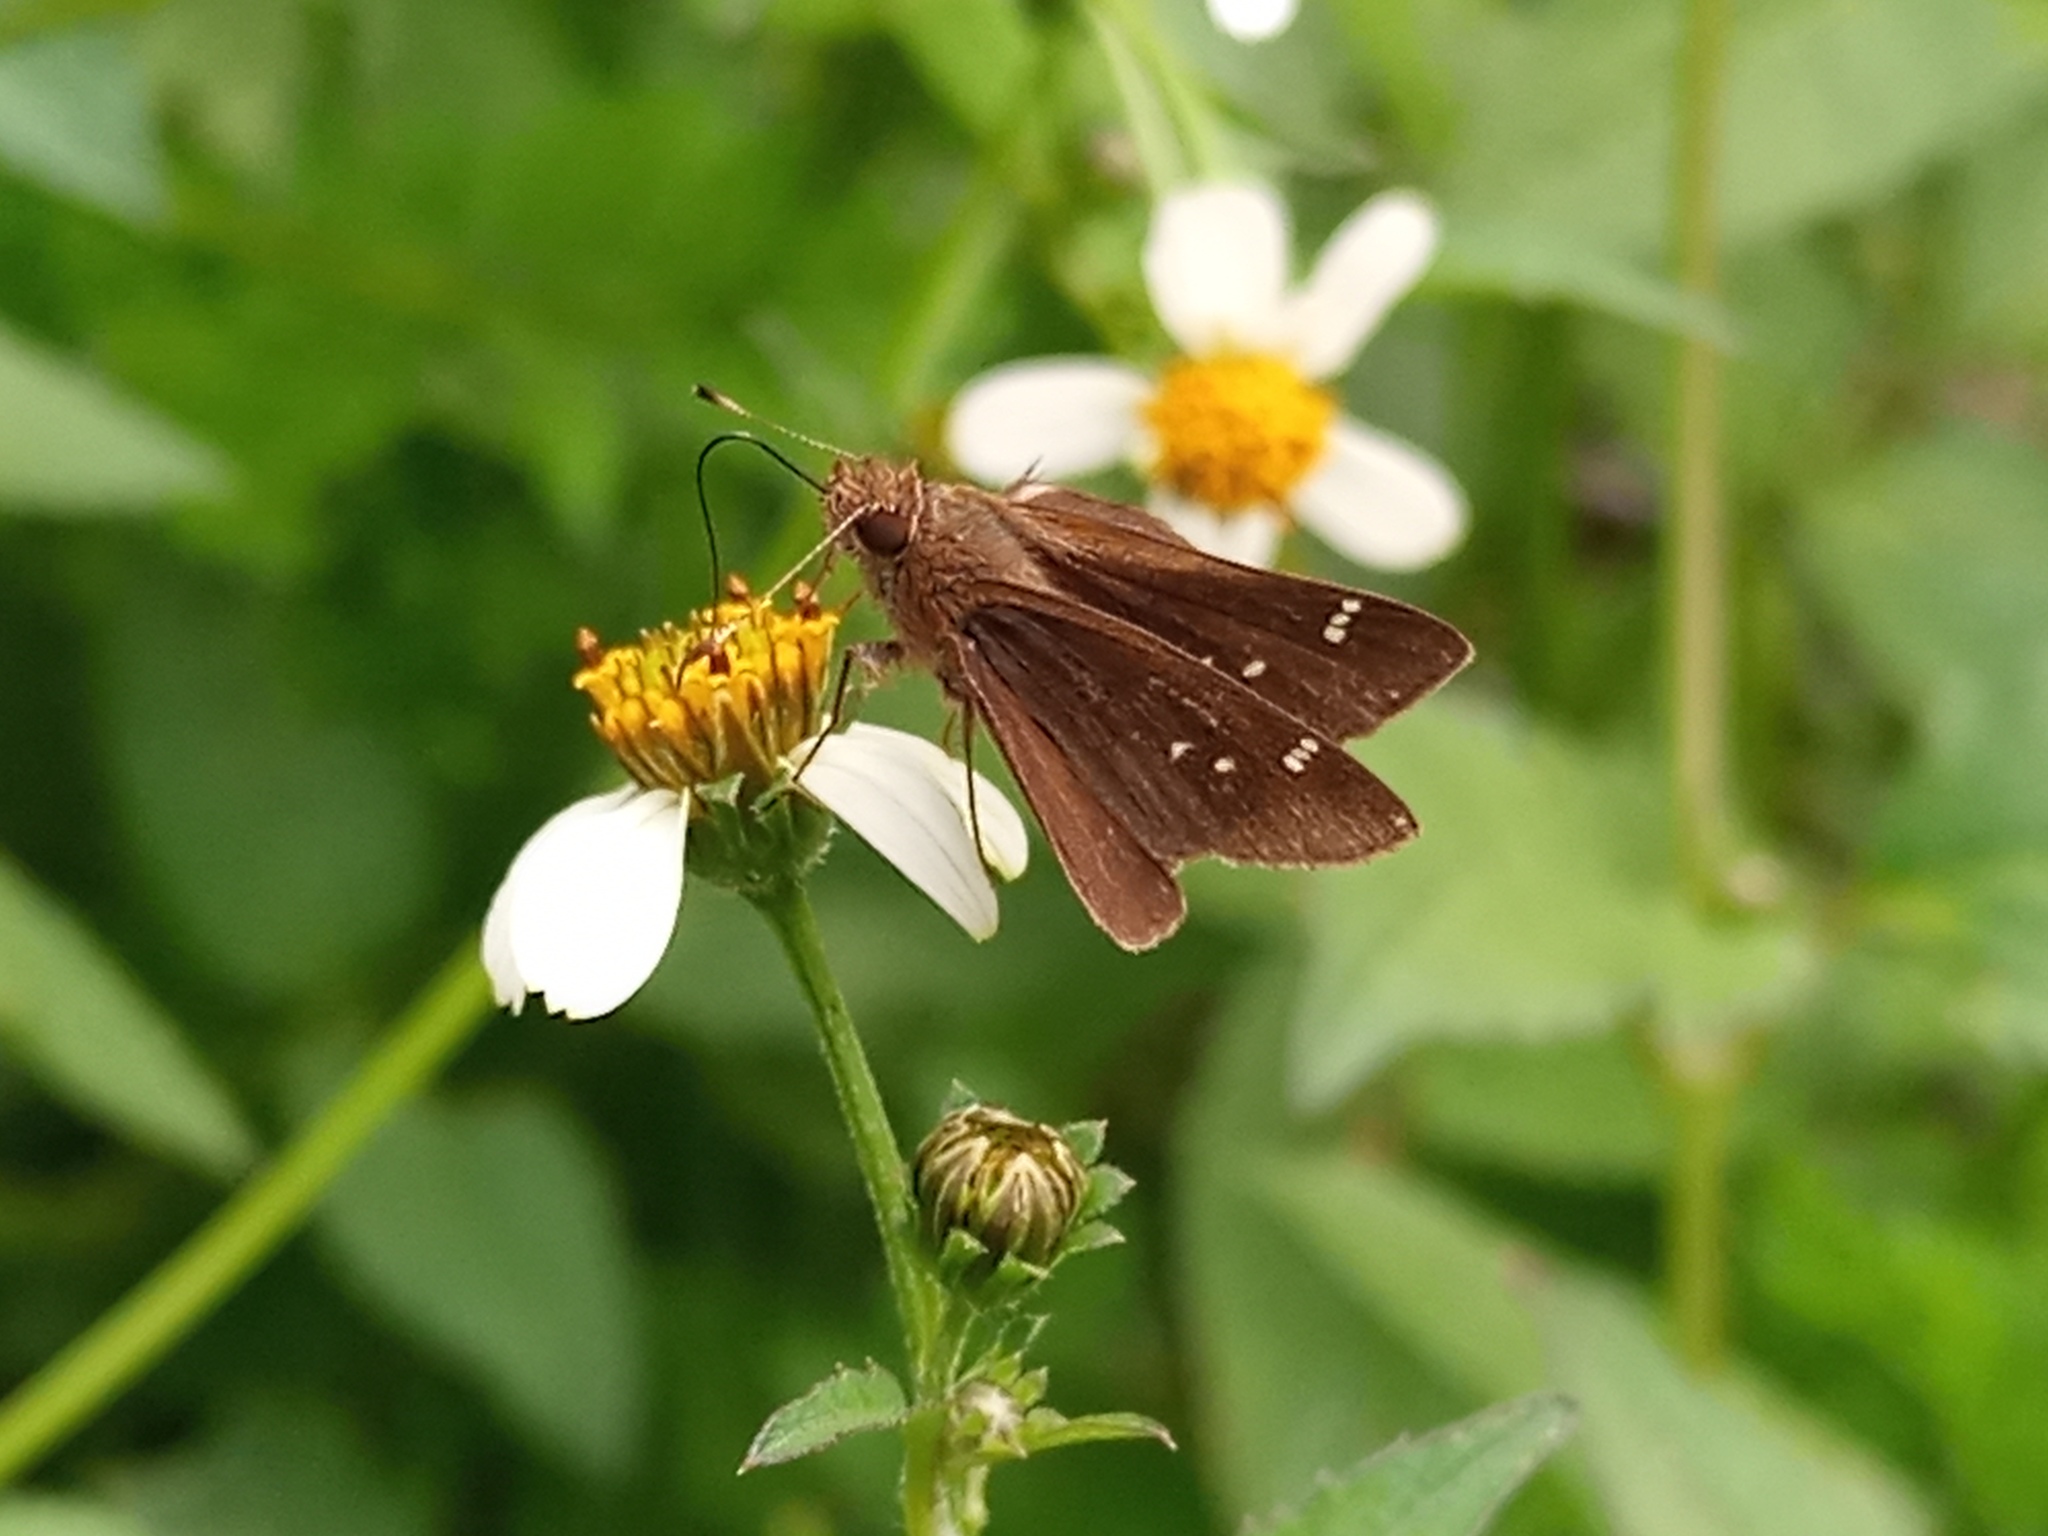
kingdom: Animalia
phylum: Arthropoda
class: Insecta
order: Lepidoptera
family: Hesperiidae
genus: Cymaenes
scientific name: Cymaenes
